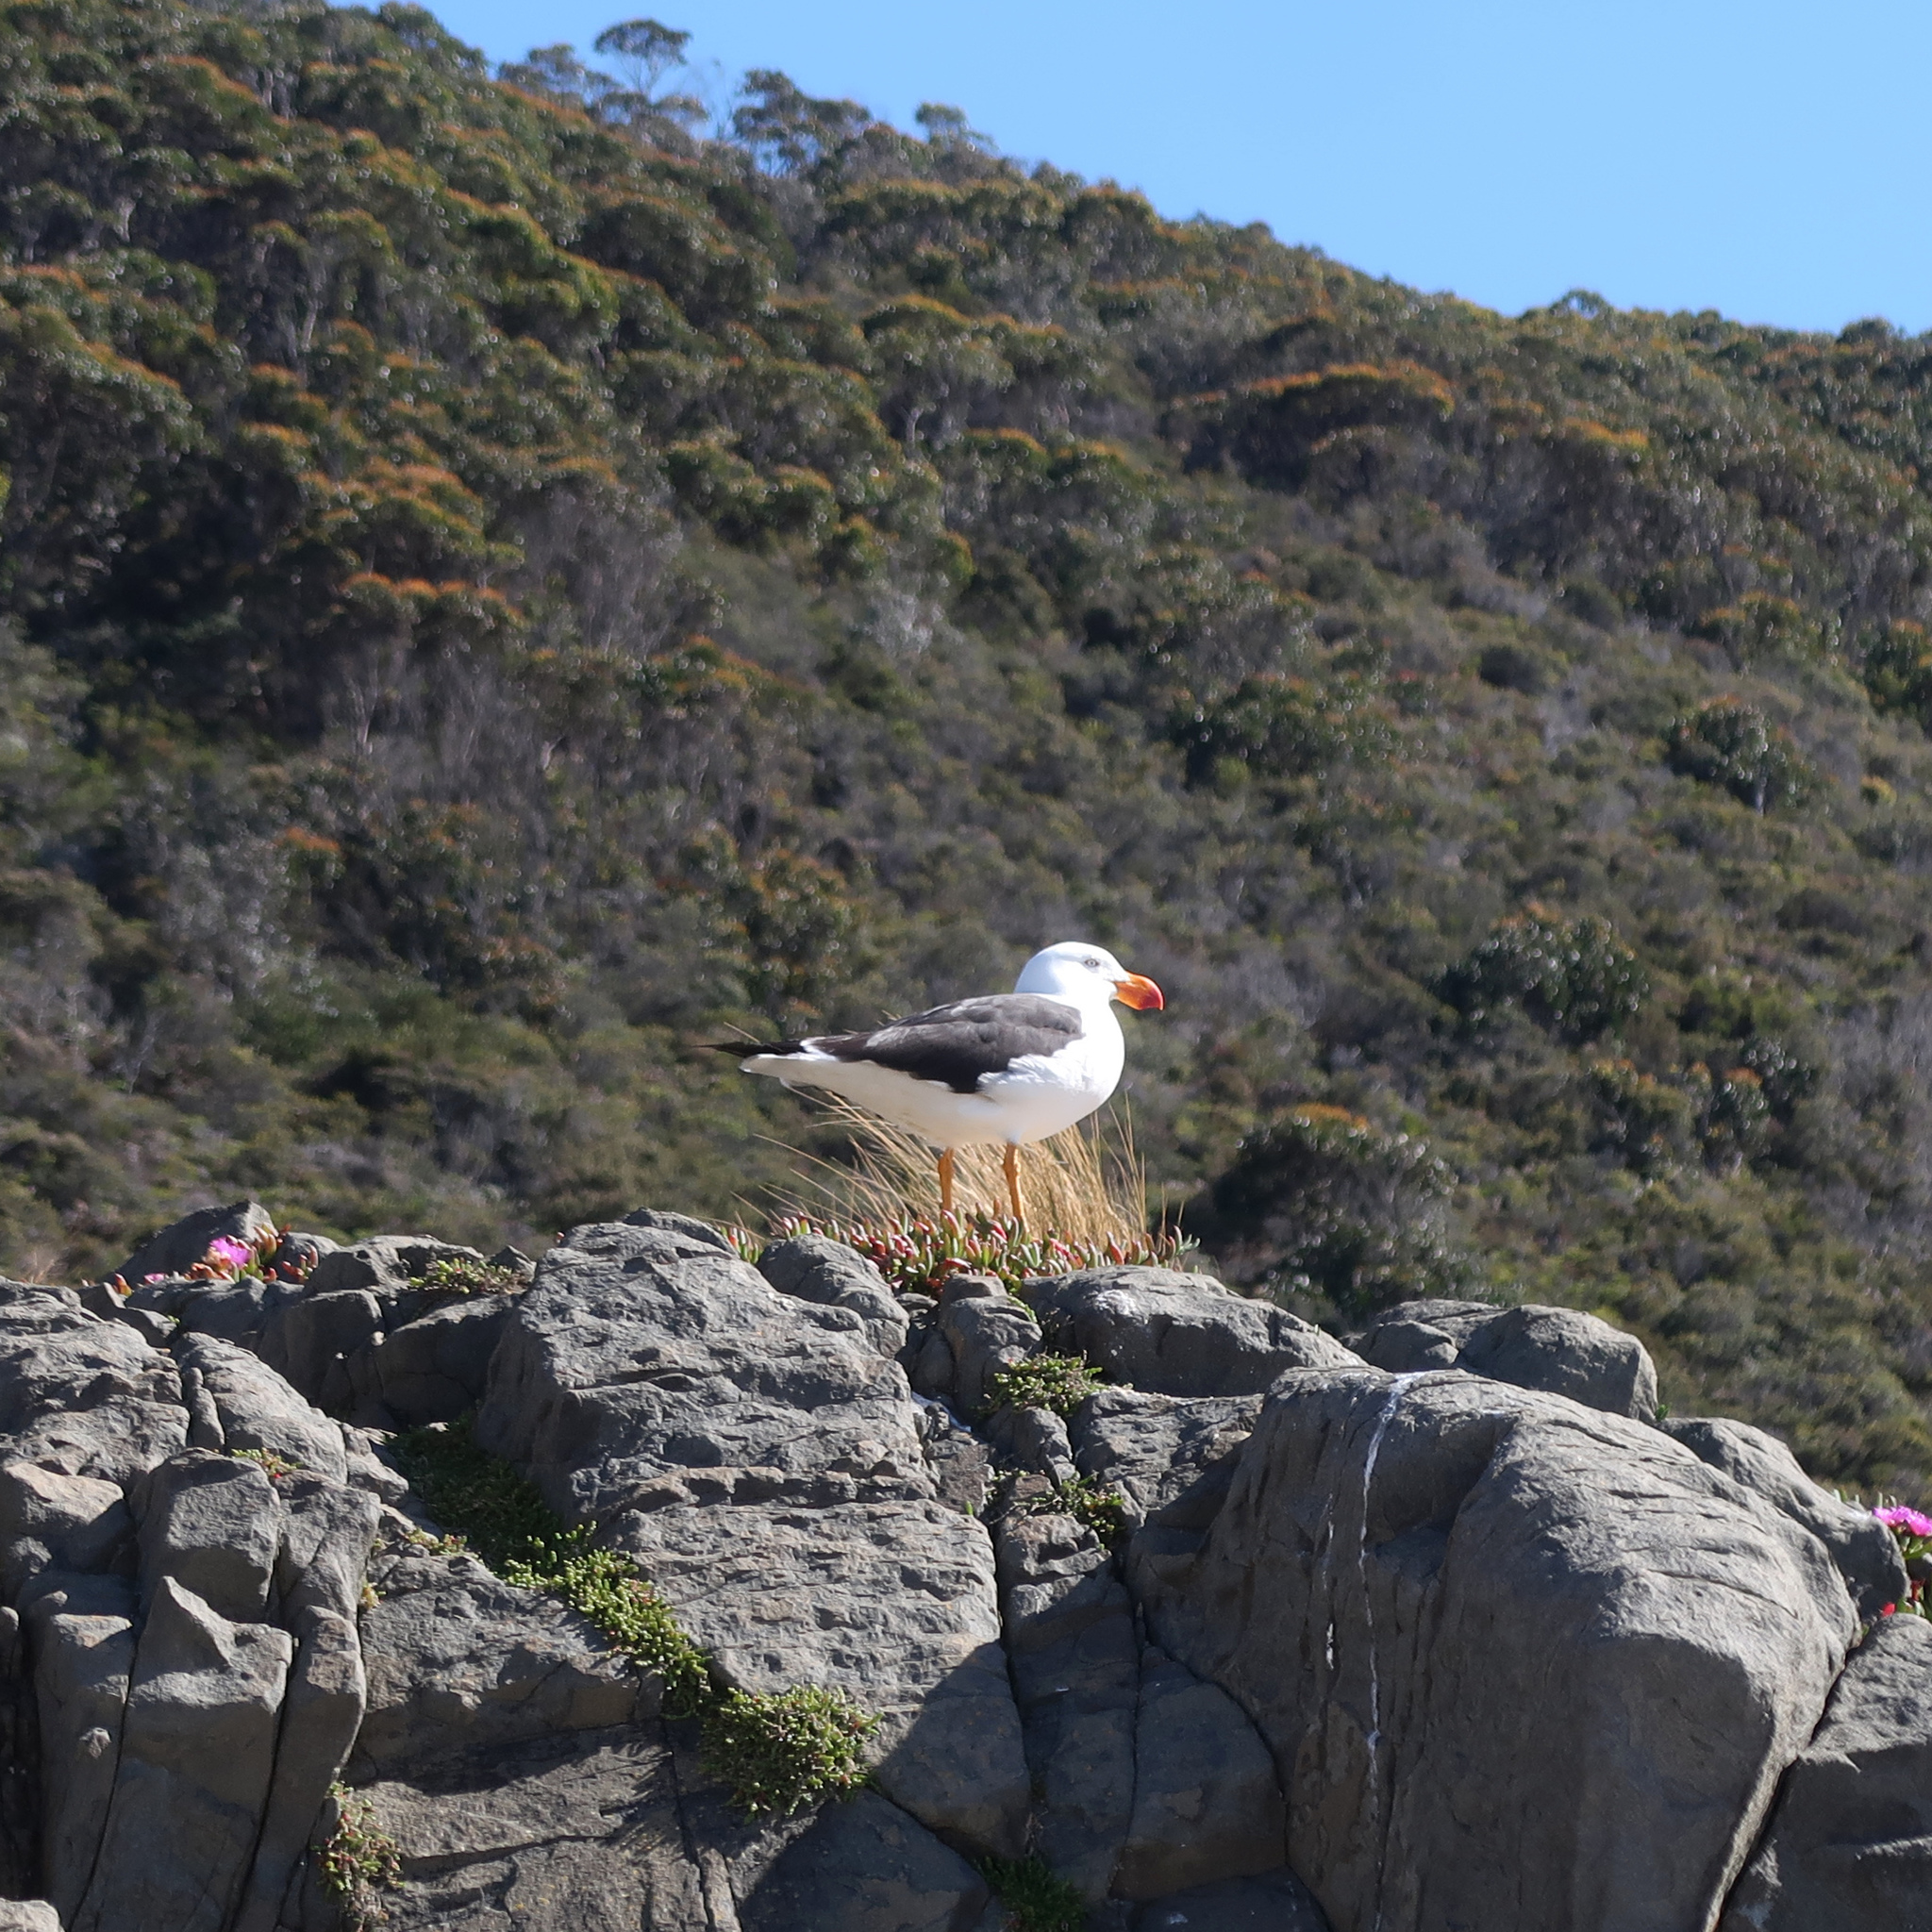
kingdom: Animalia
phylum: Chordata
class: Aves
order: Charadriiformes
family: Laridae
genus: Larus
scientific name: Larus pacificus
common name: Pacific gull
